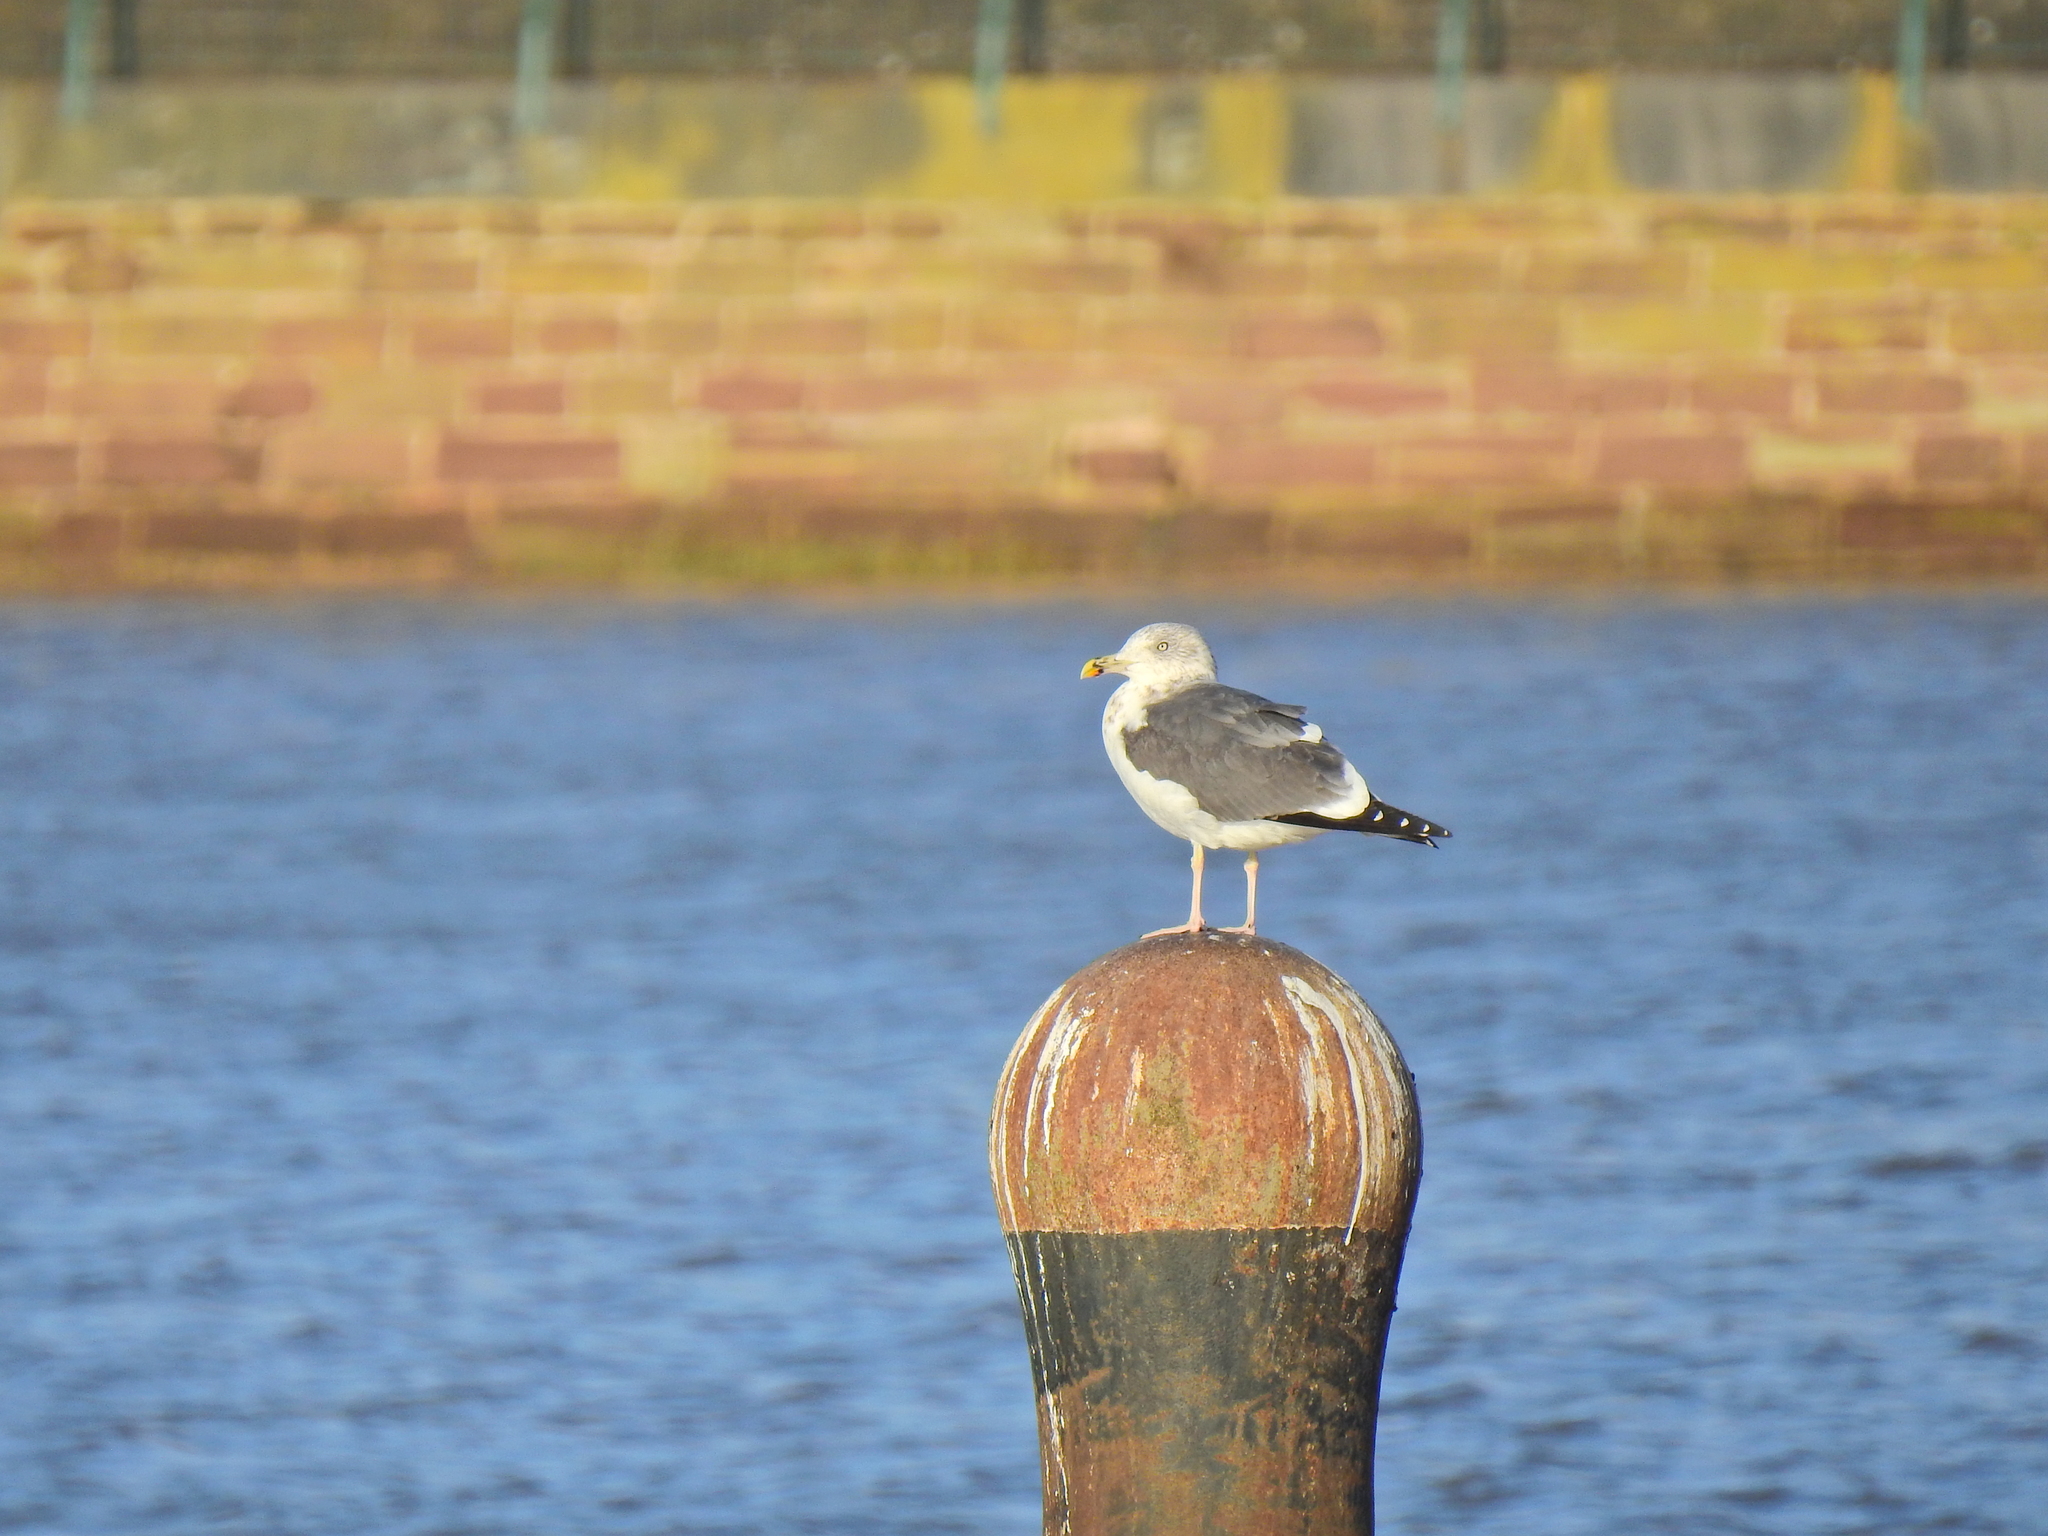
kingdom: Animalia
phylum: Chordata
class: Aves
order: Charadriiformes
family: Laridae
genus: Larus
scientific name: Larus fuscus
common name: Lesser black-backed gull
